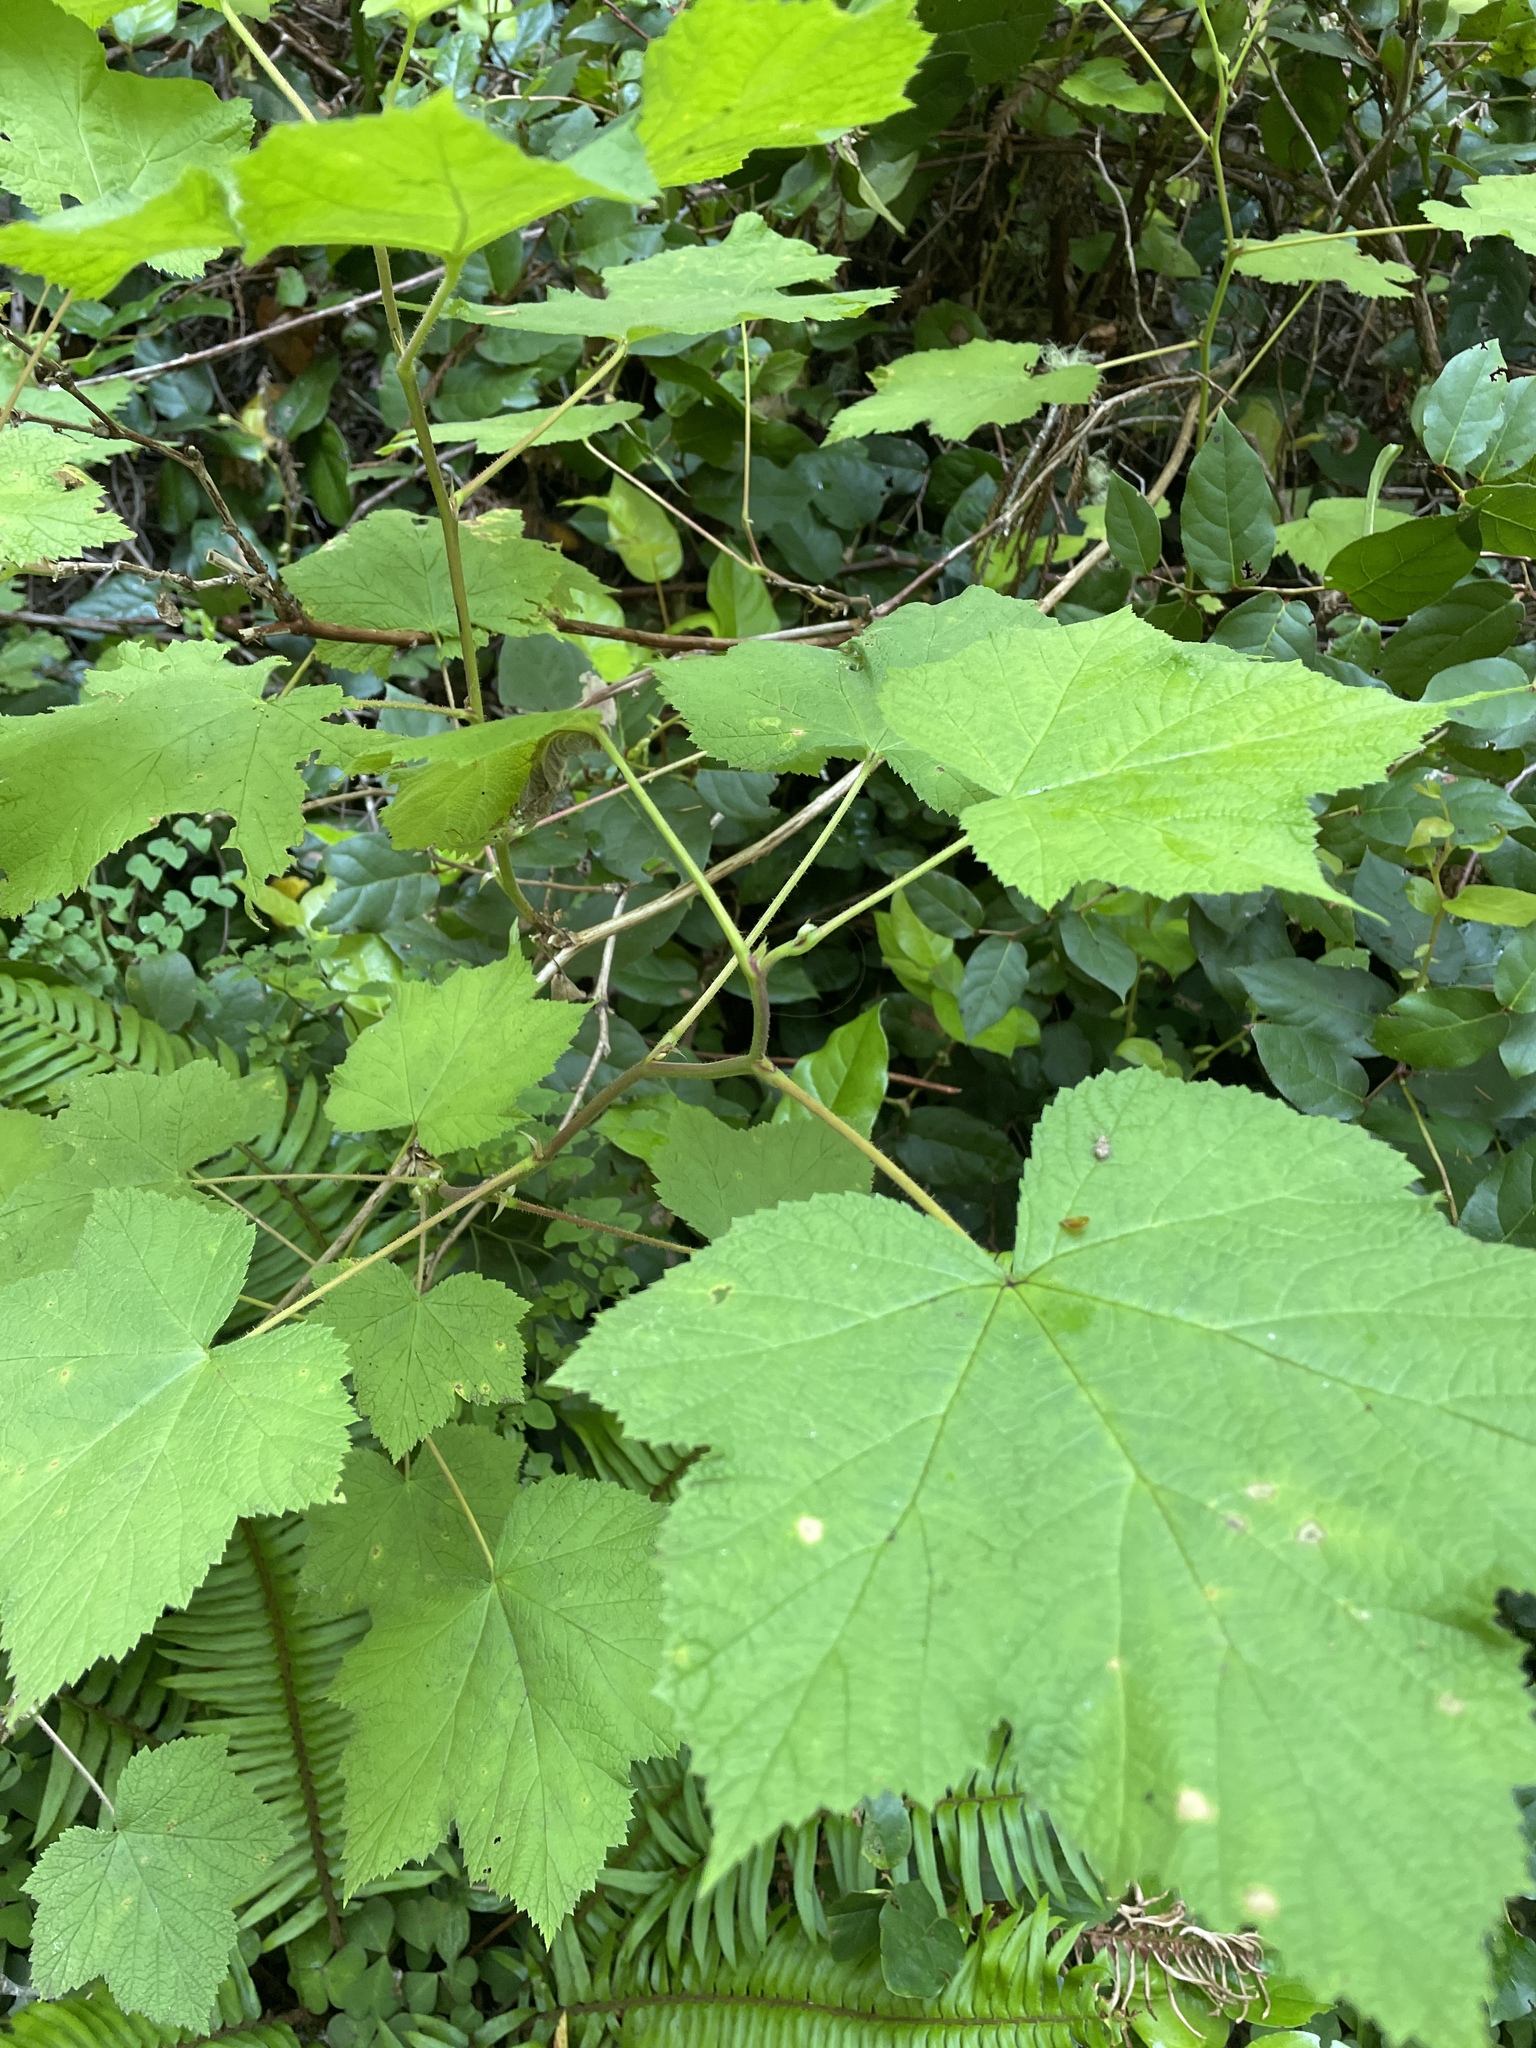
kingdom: Plantae
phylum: Tracheophyta
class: Magnoliopsida
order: Rosales
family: Rosaceae
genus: Rubus
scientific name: Rubus parviflorus
